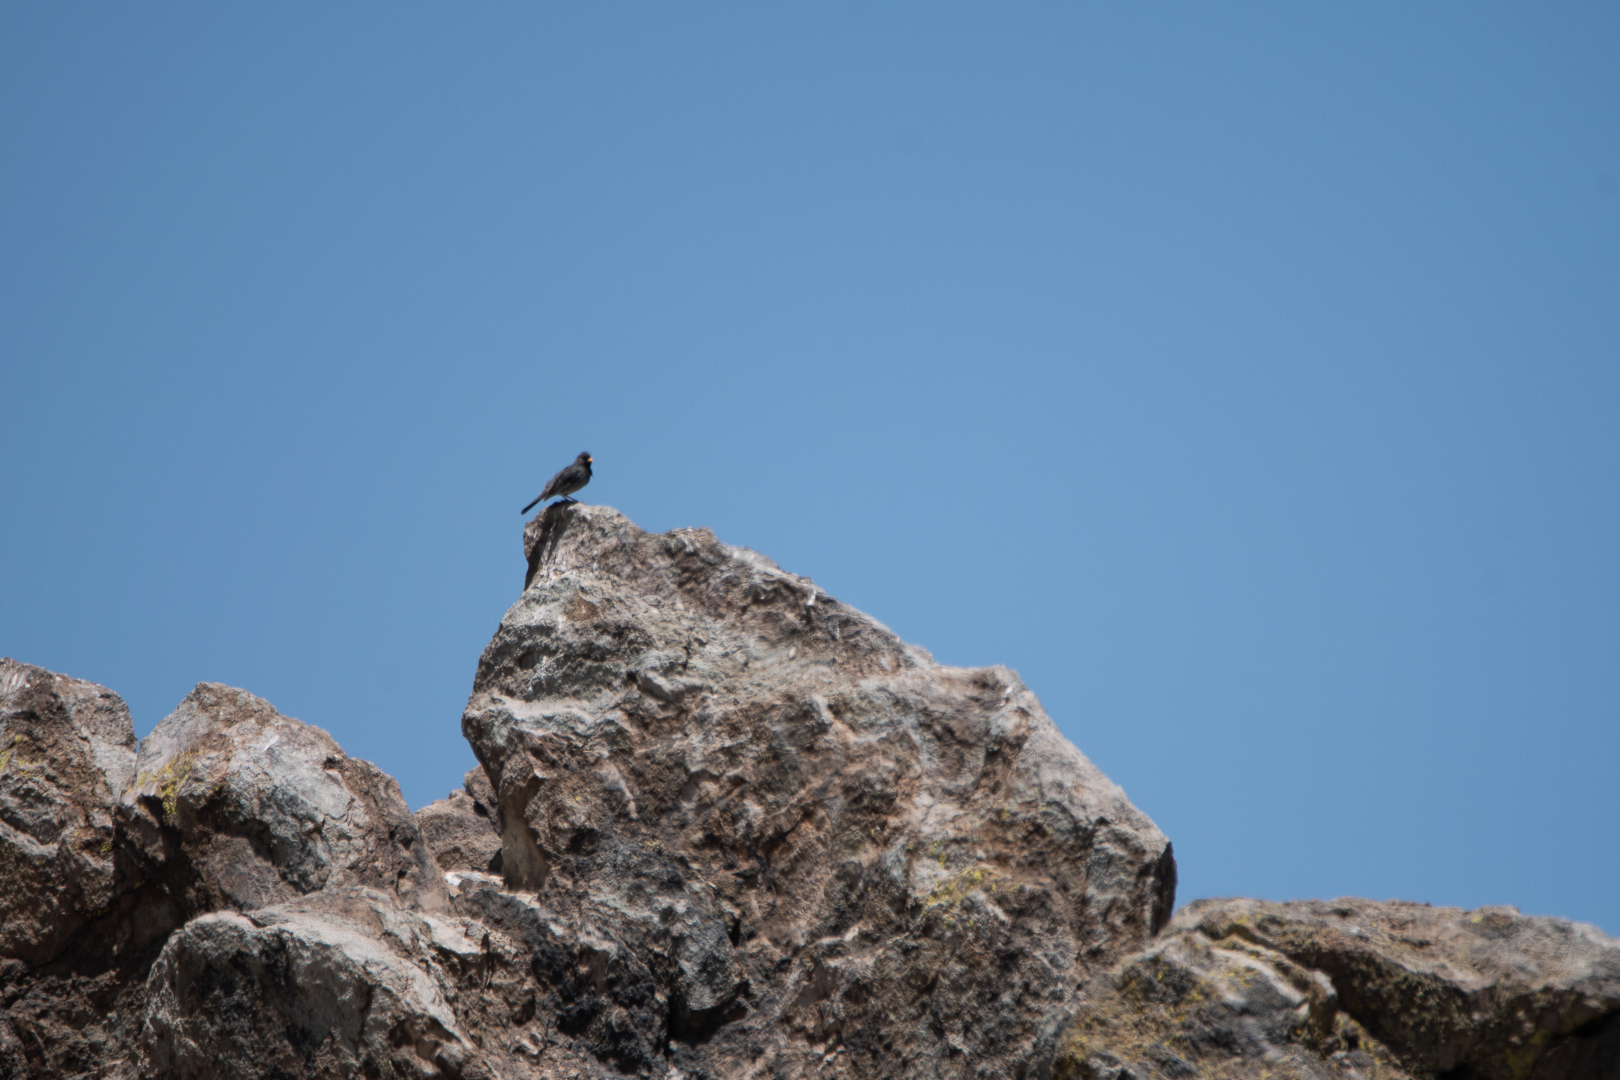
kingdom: Animalia
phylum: Chordata
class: Aves
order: Passeriformes
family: Thraupidae
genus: Porphyrospiza
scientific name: Porphyrospiza alaudina
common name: Band-tailed sierra finch
